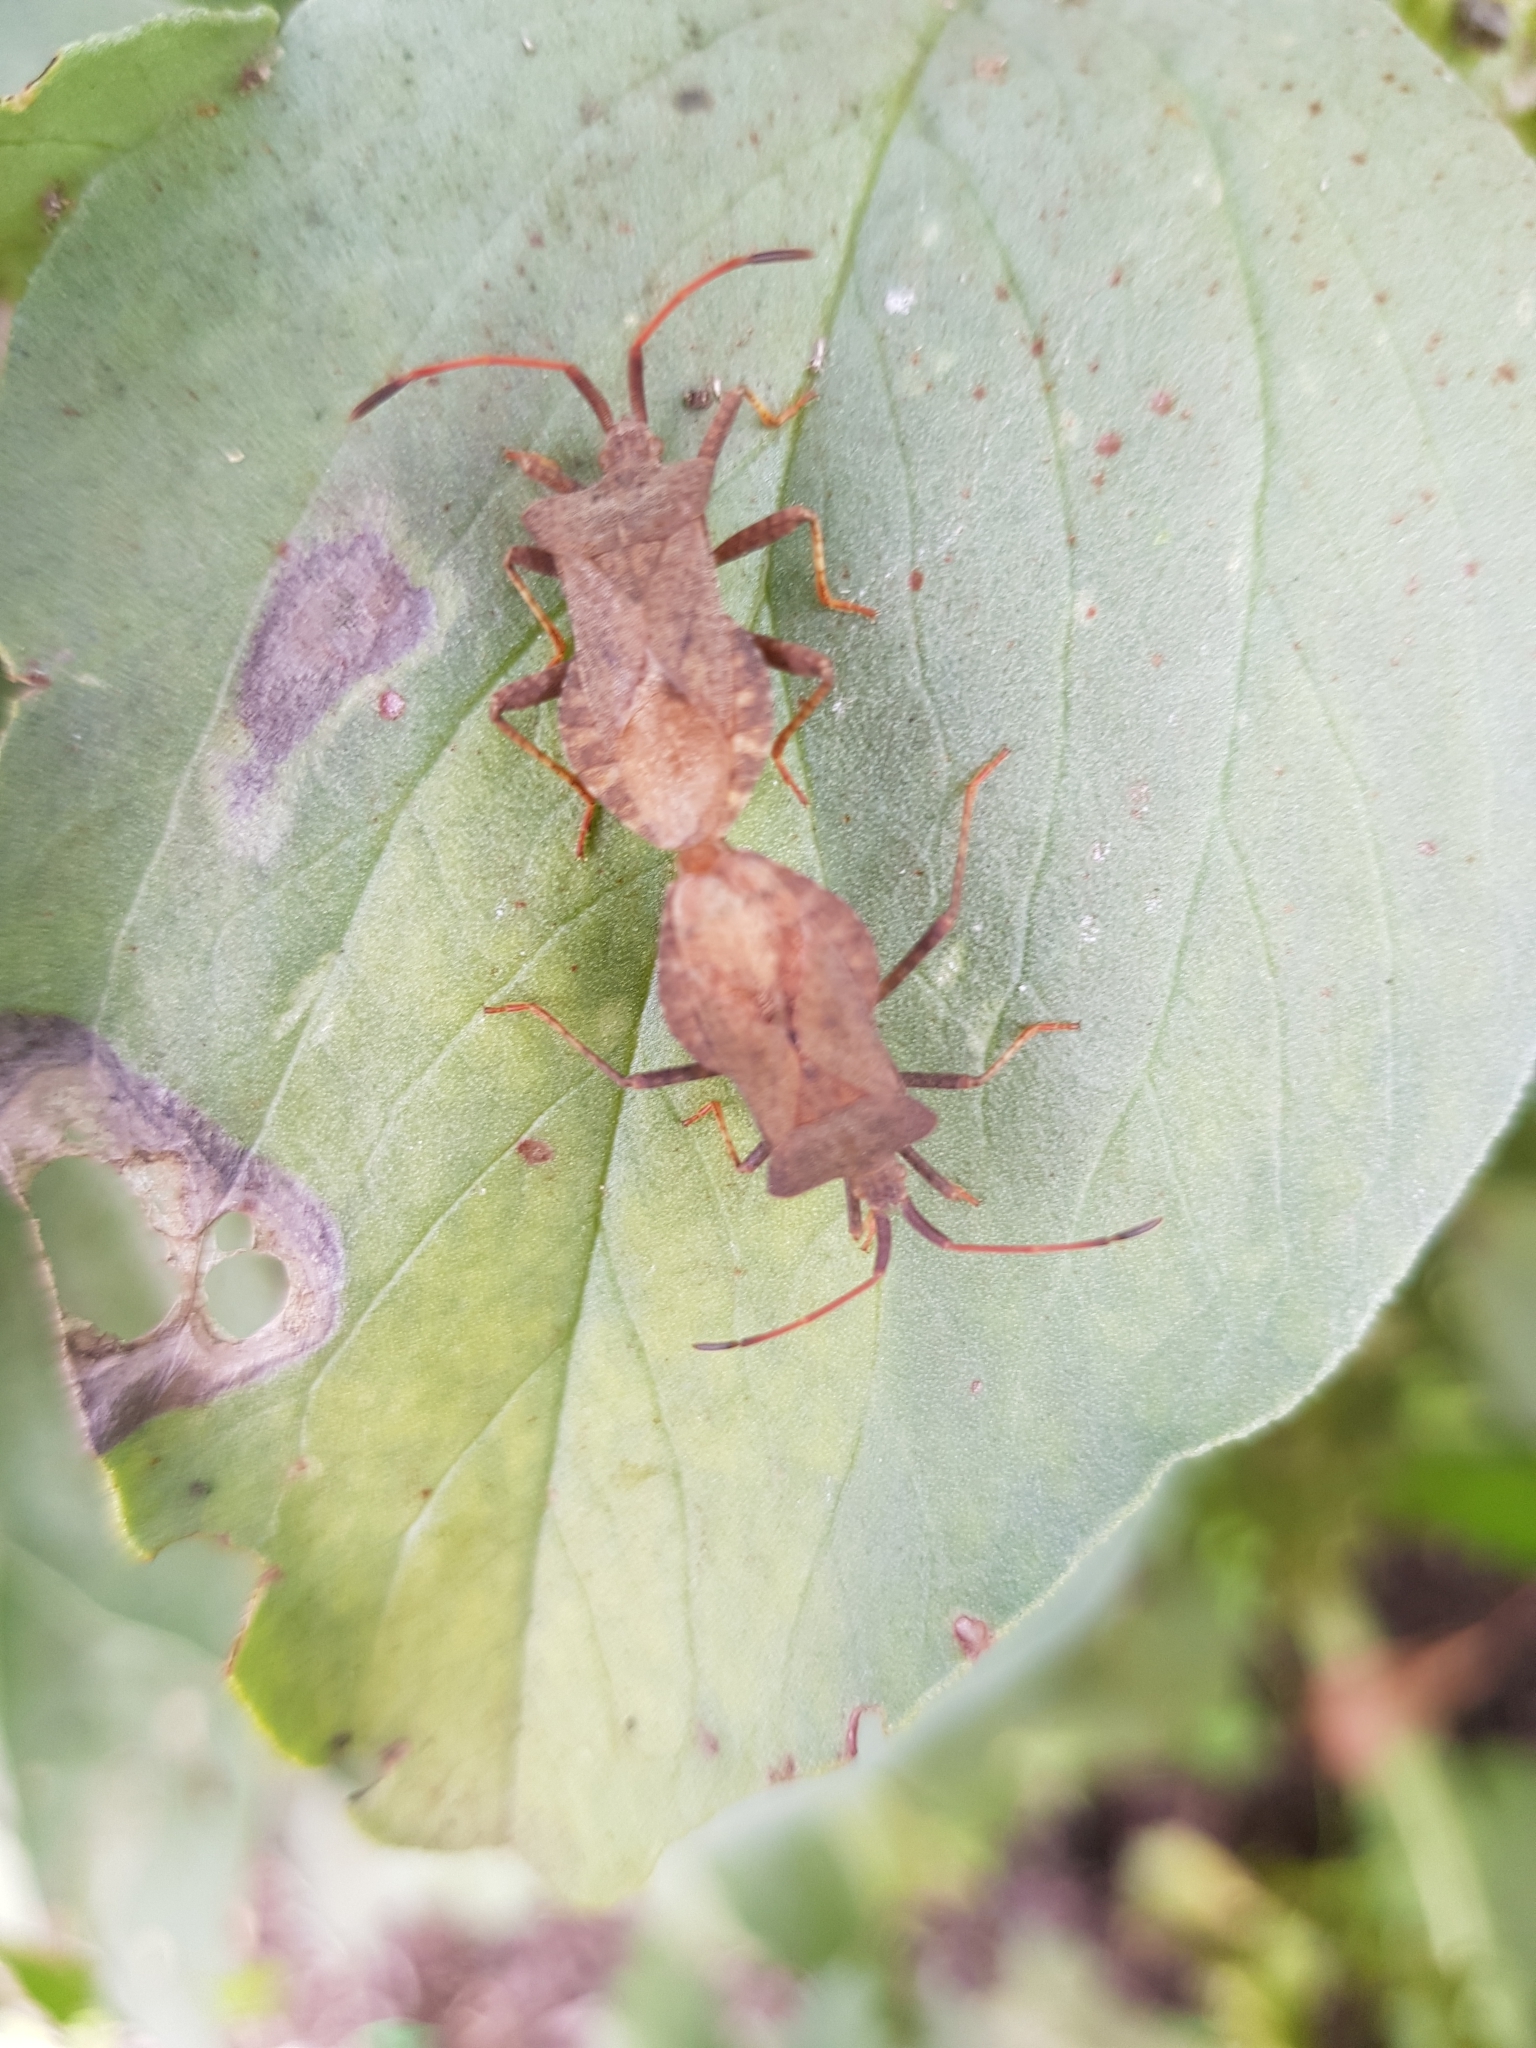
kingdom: Animalia
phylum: Arthropoda
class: Insecta
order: Hemiptera
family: Coreidae
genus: Coreus
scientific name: Coreus marginatus
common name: Dock bug
